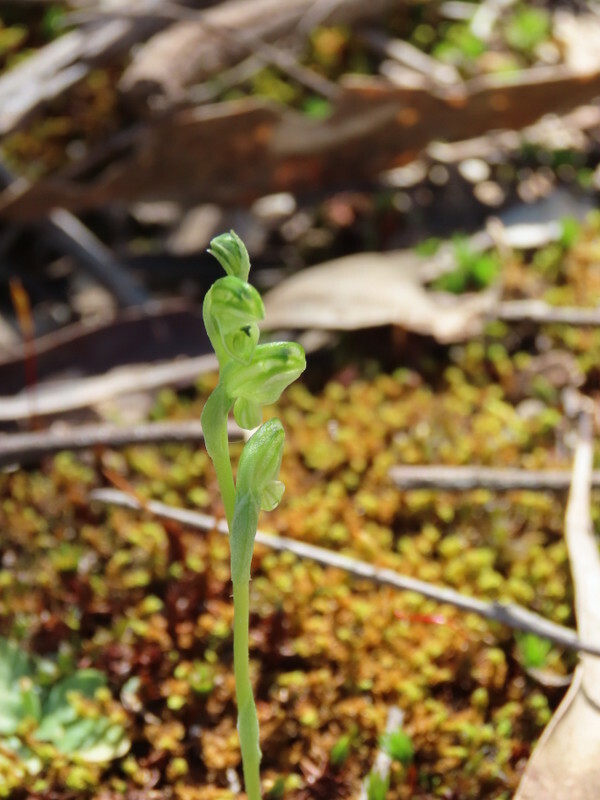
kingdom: Plantae
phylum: Tracheophyta
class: Liliopsida
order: Asparagales
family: Orchidaceae
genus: Pterostylis
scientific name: Pterostylis cycnocephala
